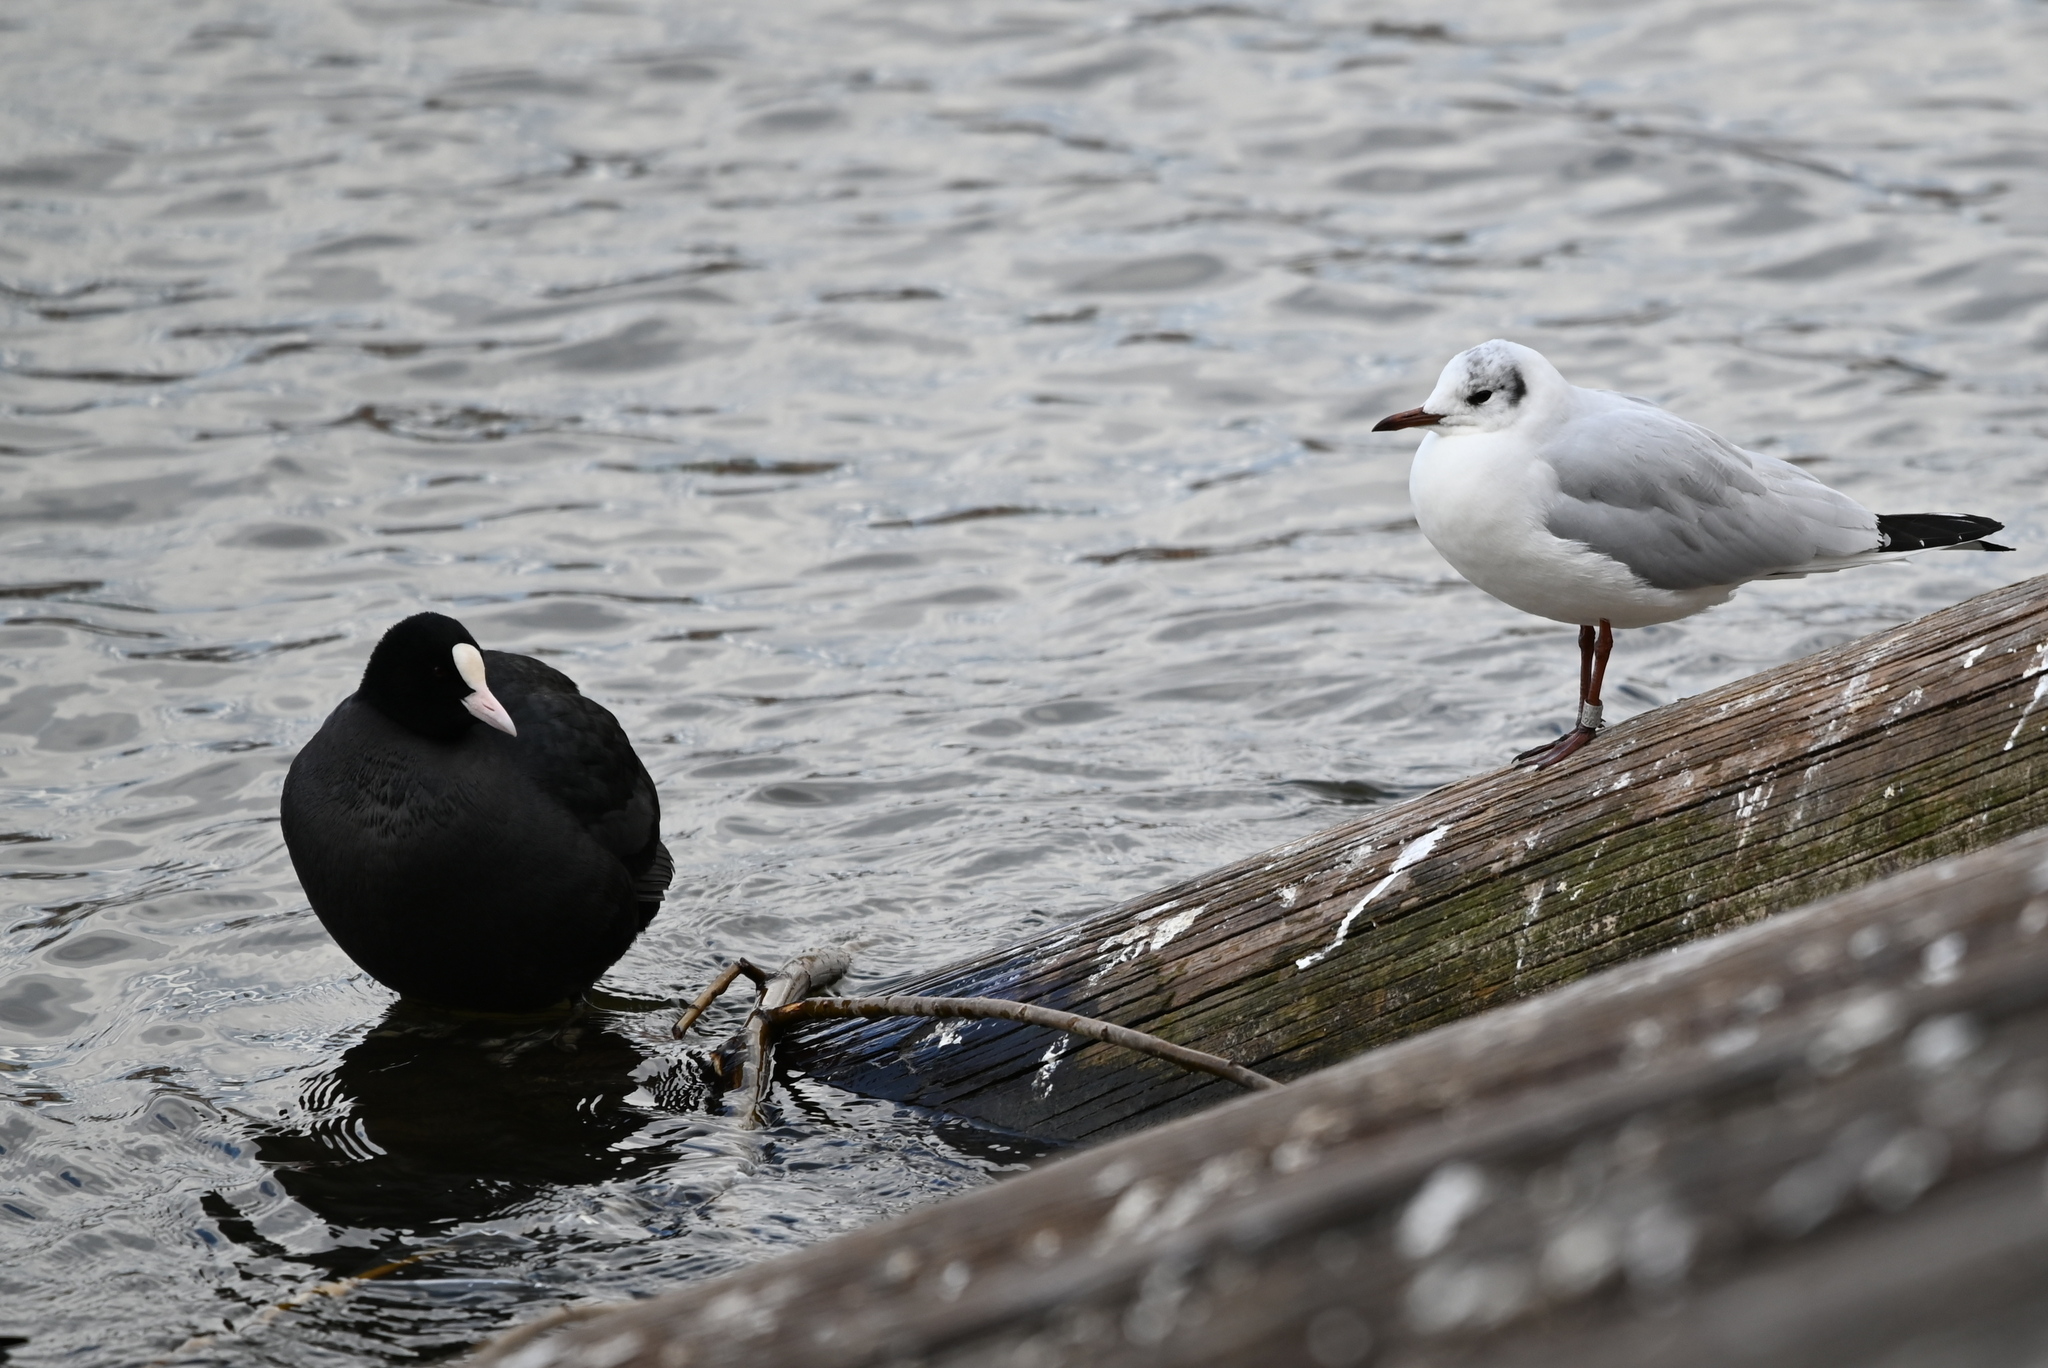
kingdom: Animalia
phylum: Chordata
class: Aves
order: Gruiformes
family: Rallidae
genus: Fulica
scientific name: Fulica atra
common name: Eurasian coot
